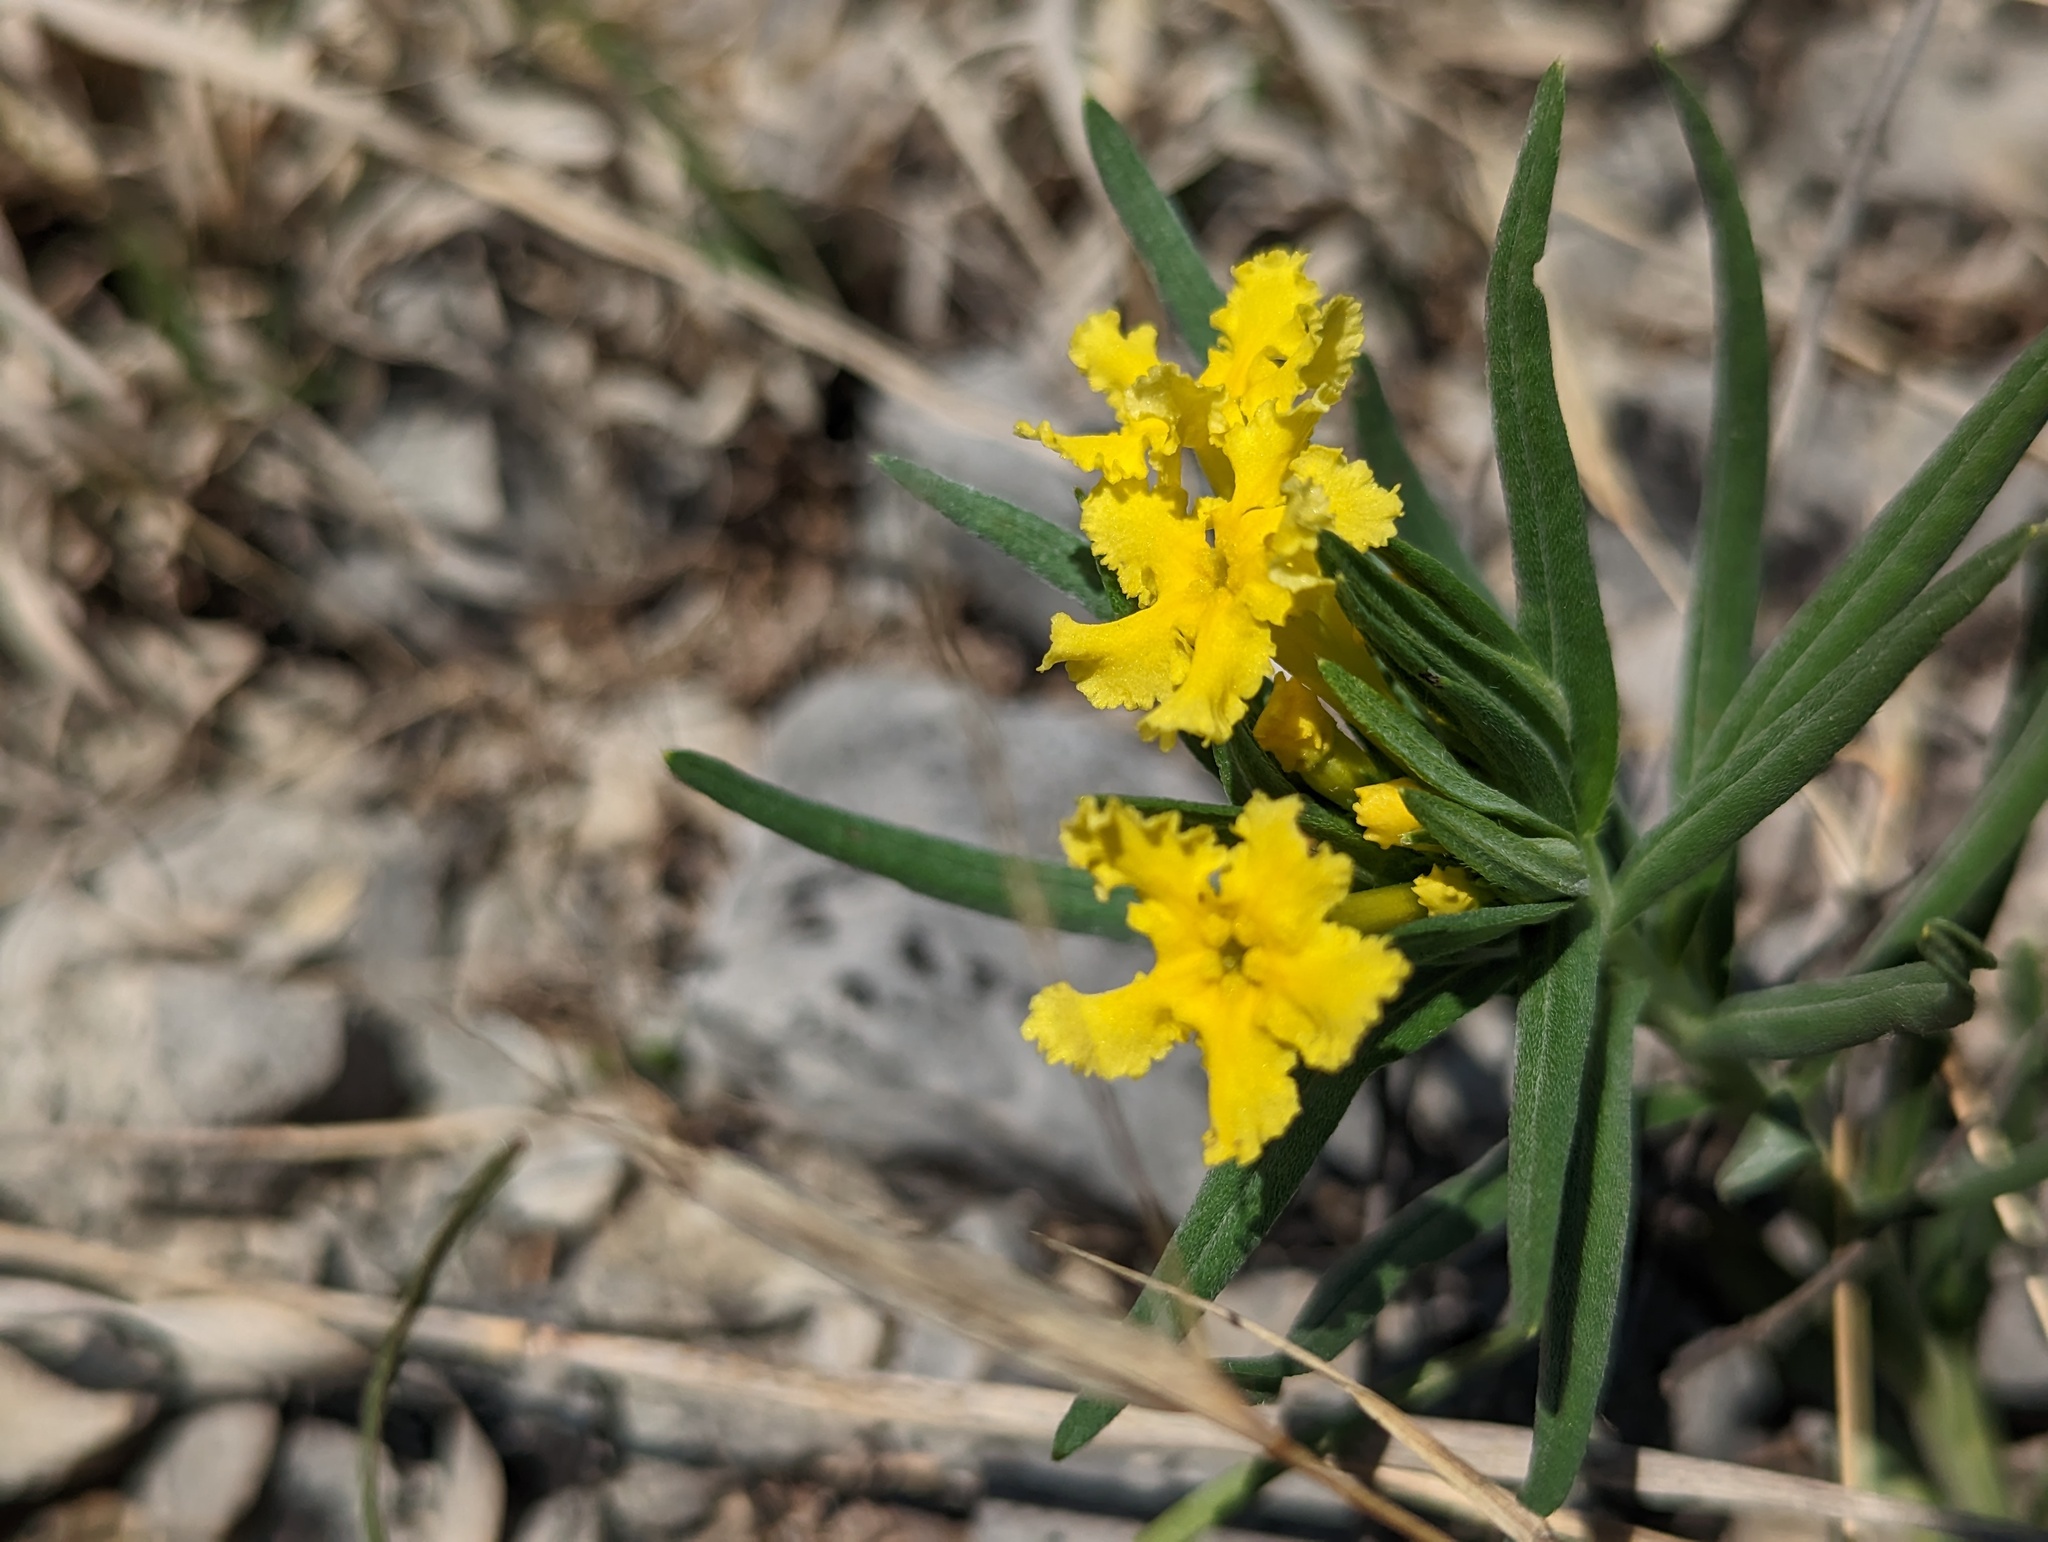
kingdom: Plantae
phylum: Tracheophyta
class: Magnoliopsida
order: Boraginales
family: Boraginaceae
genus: Lithospermum
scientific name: Lithospermum incisum
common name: Fringed gromwell
